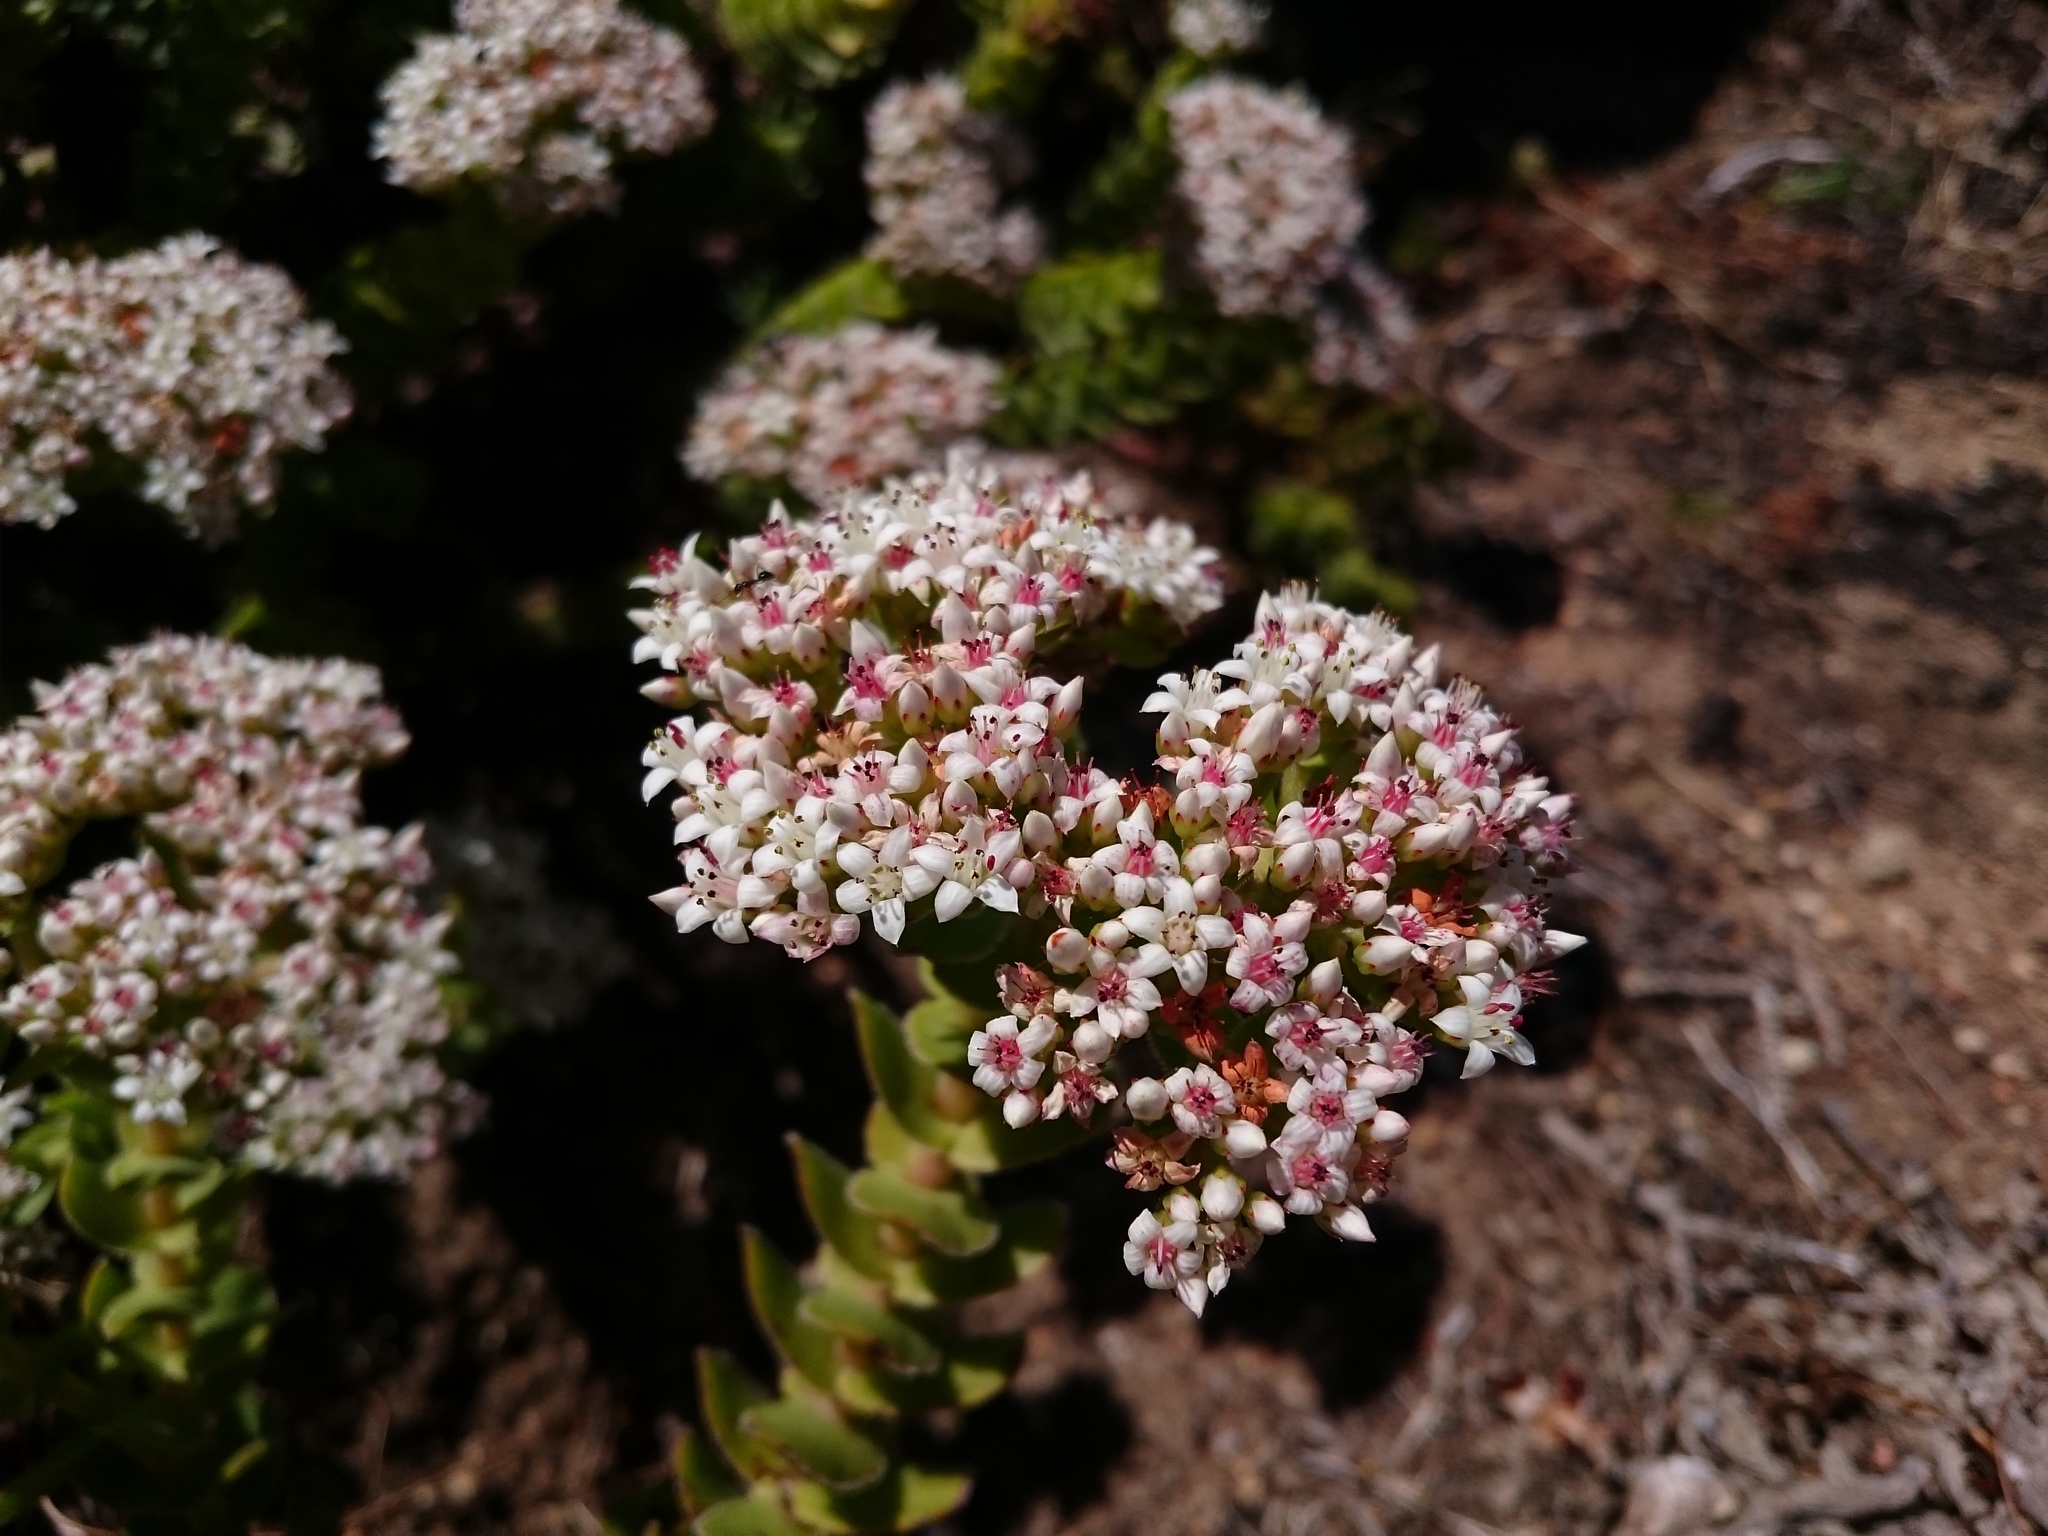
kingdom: Plantae
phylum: Tracheophyta
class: Magnoliopsida
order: Saxifragales
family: Crassulaceae
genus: Crassula
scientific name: Crassula undulata
